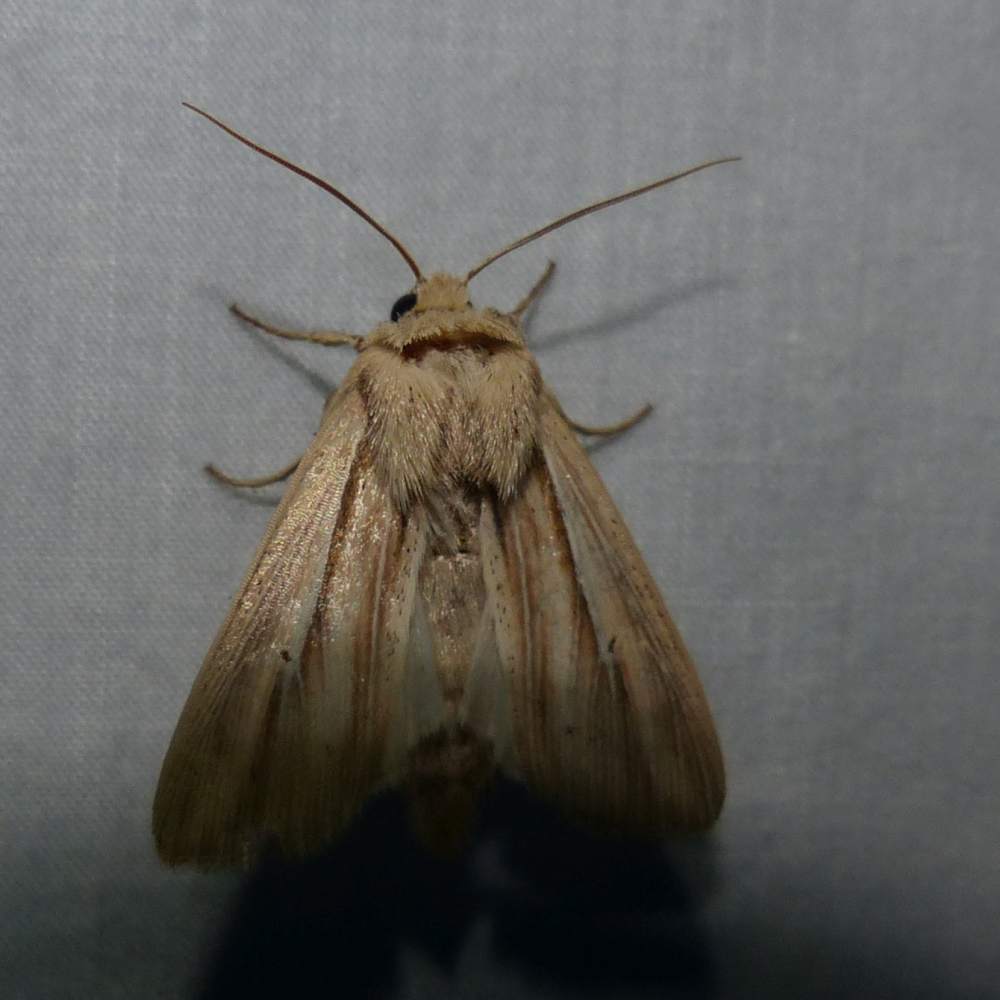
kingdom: Animalia
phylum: Arthropoda
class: Insecta
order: Lepidoptera
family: Noctuidae
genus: Leucania
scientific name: Leucania commoides
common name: Two-lined wainscot
